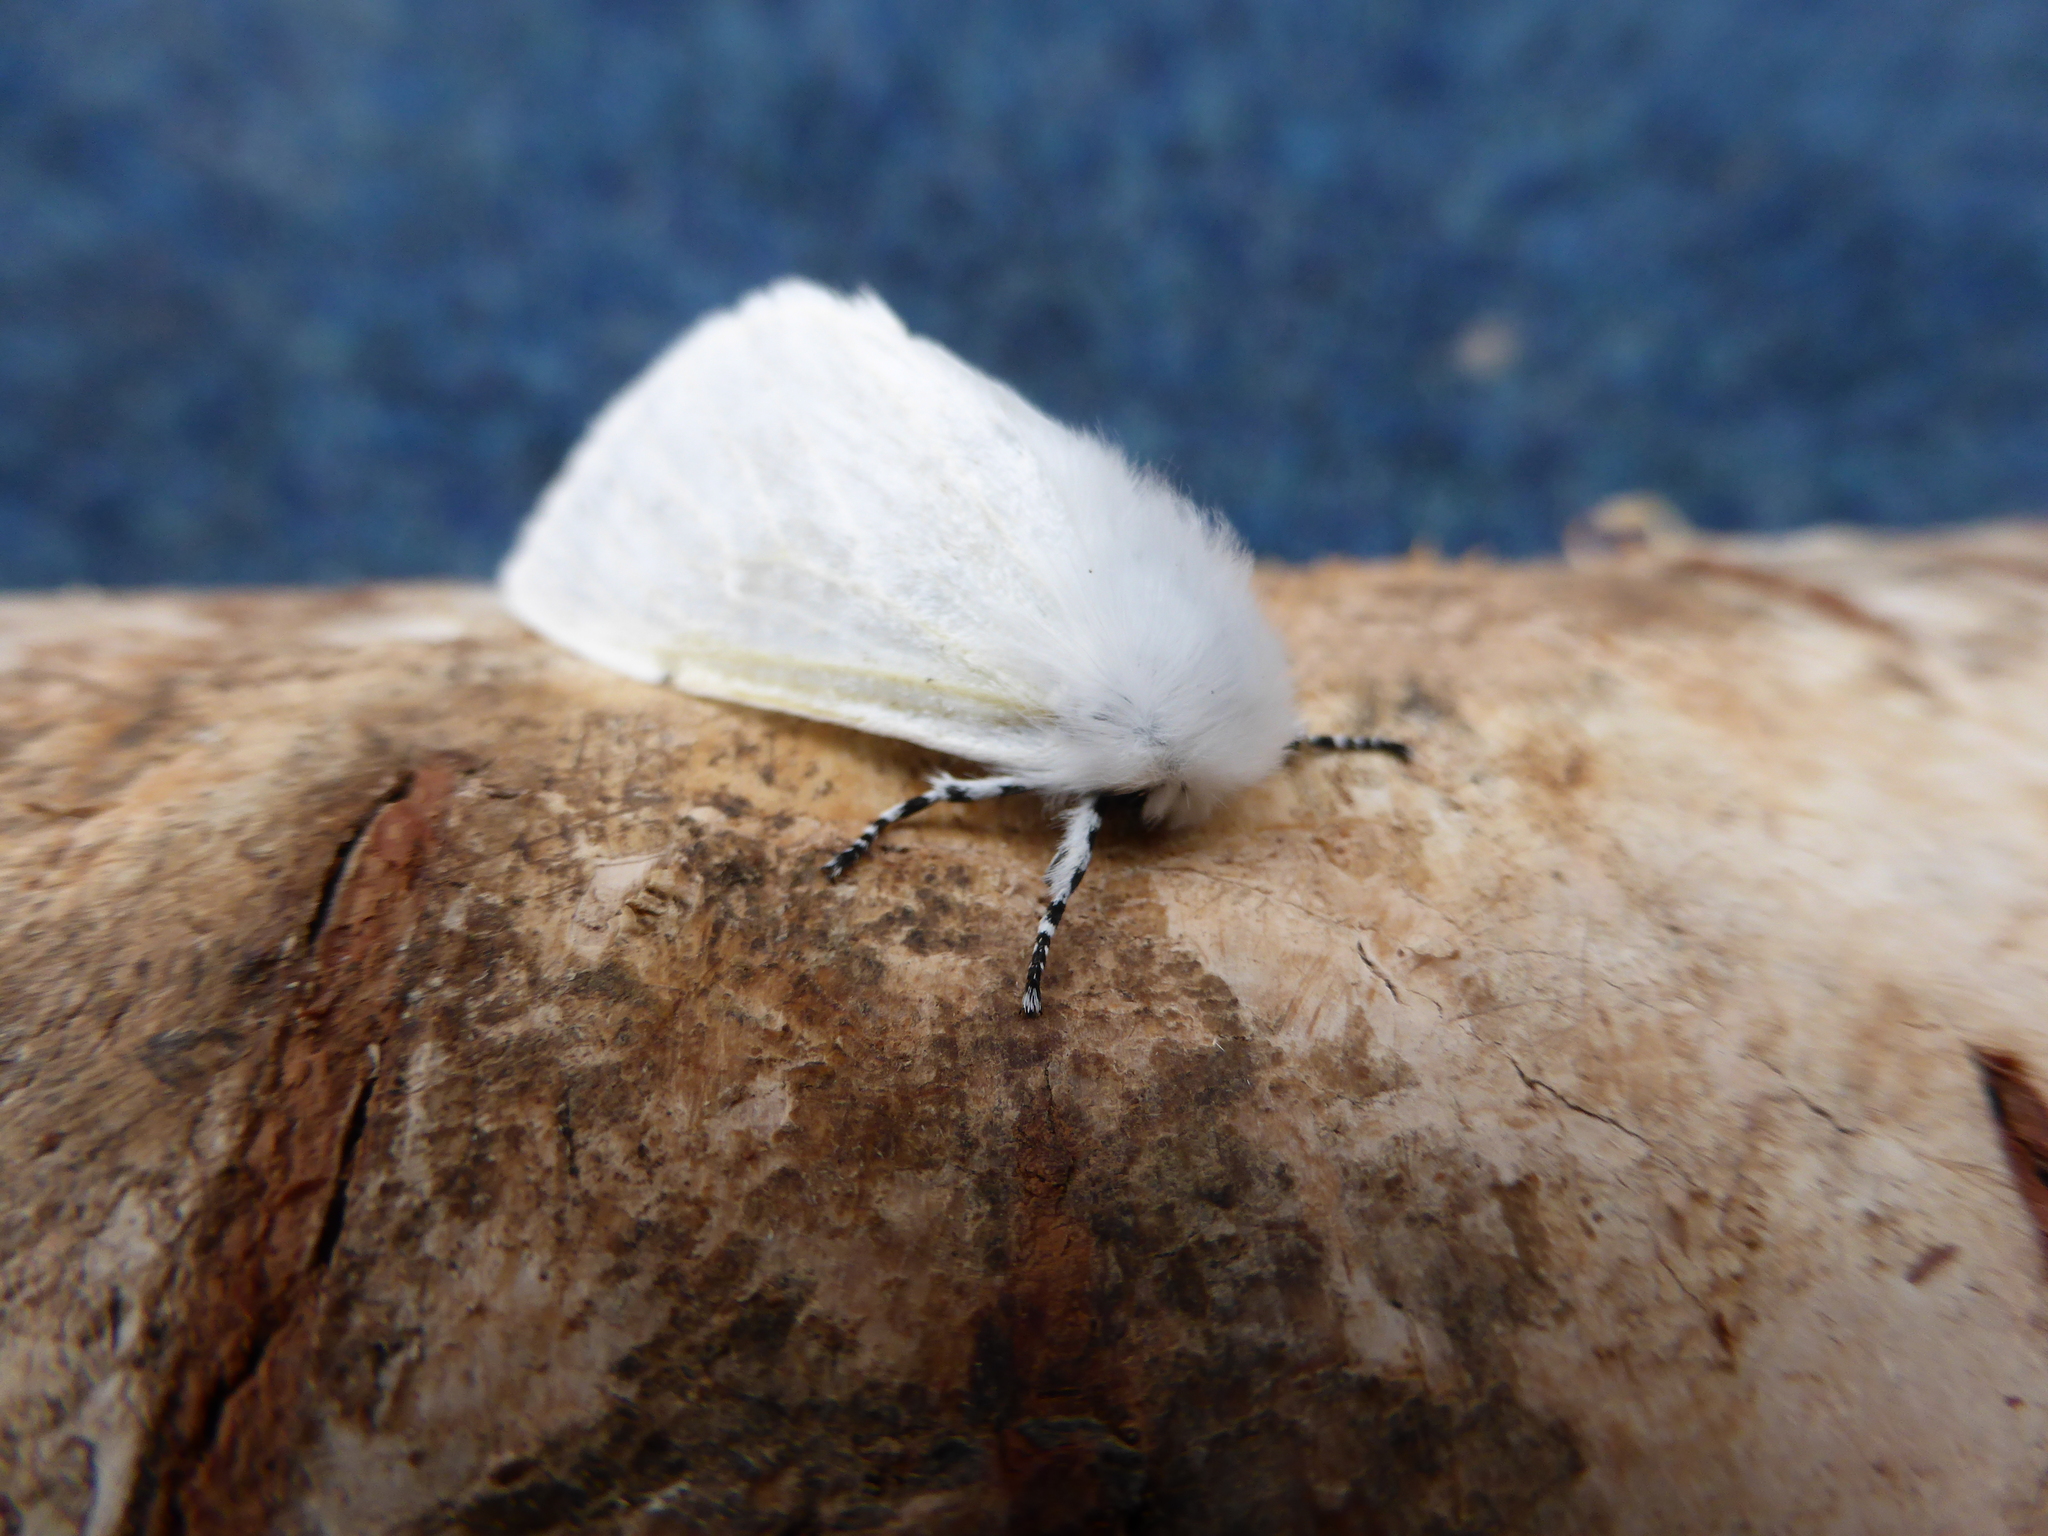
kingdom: Animalia
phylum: Arthropoda
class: Insecta
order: Lepidoptera
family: Erebidae
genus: Leucoma
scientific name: Leucoma salicis
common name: White satin moth
